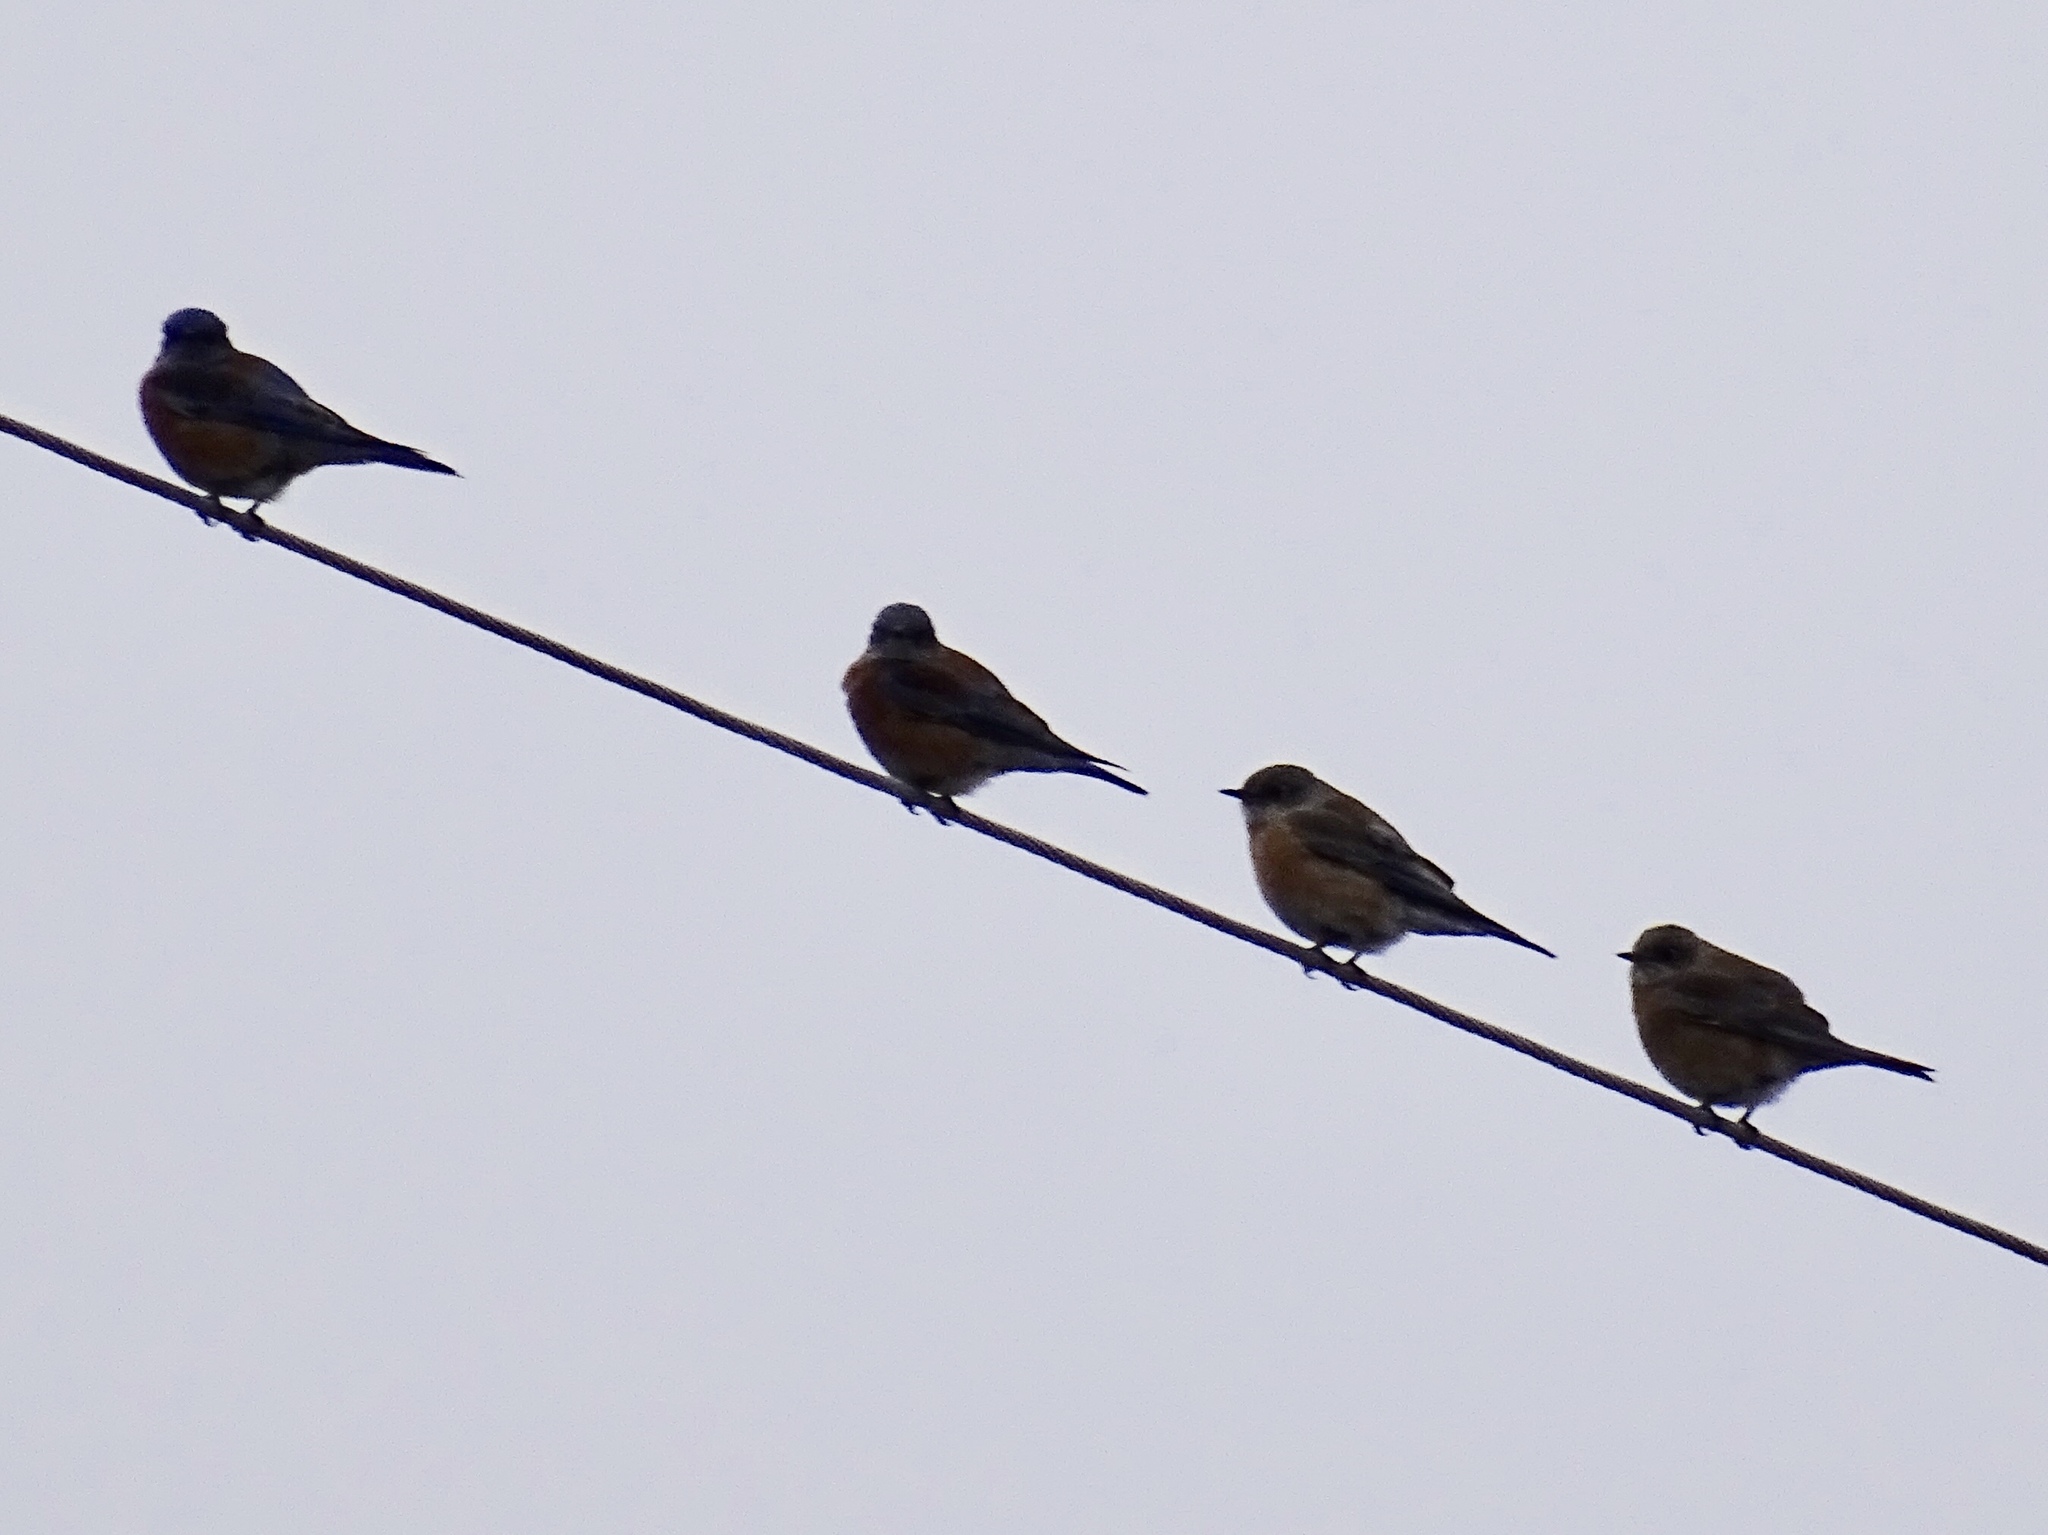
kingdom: Animalia
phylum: Chordata
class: Aves
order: Passeriformes
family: Turdidae
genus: Sialia
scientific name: Sialia mexicana
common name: Western bluebird
